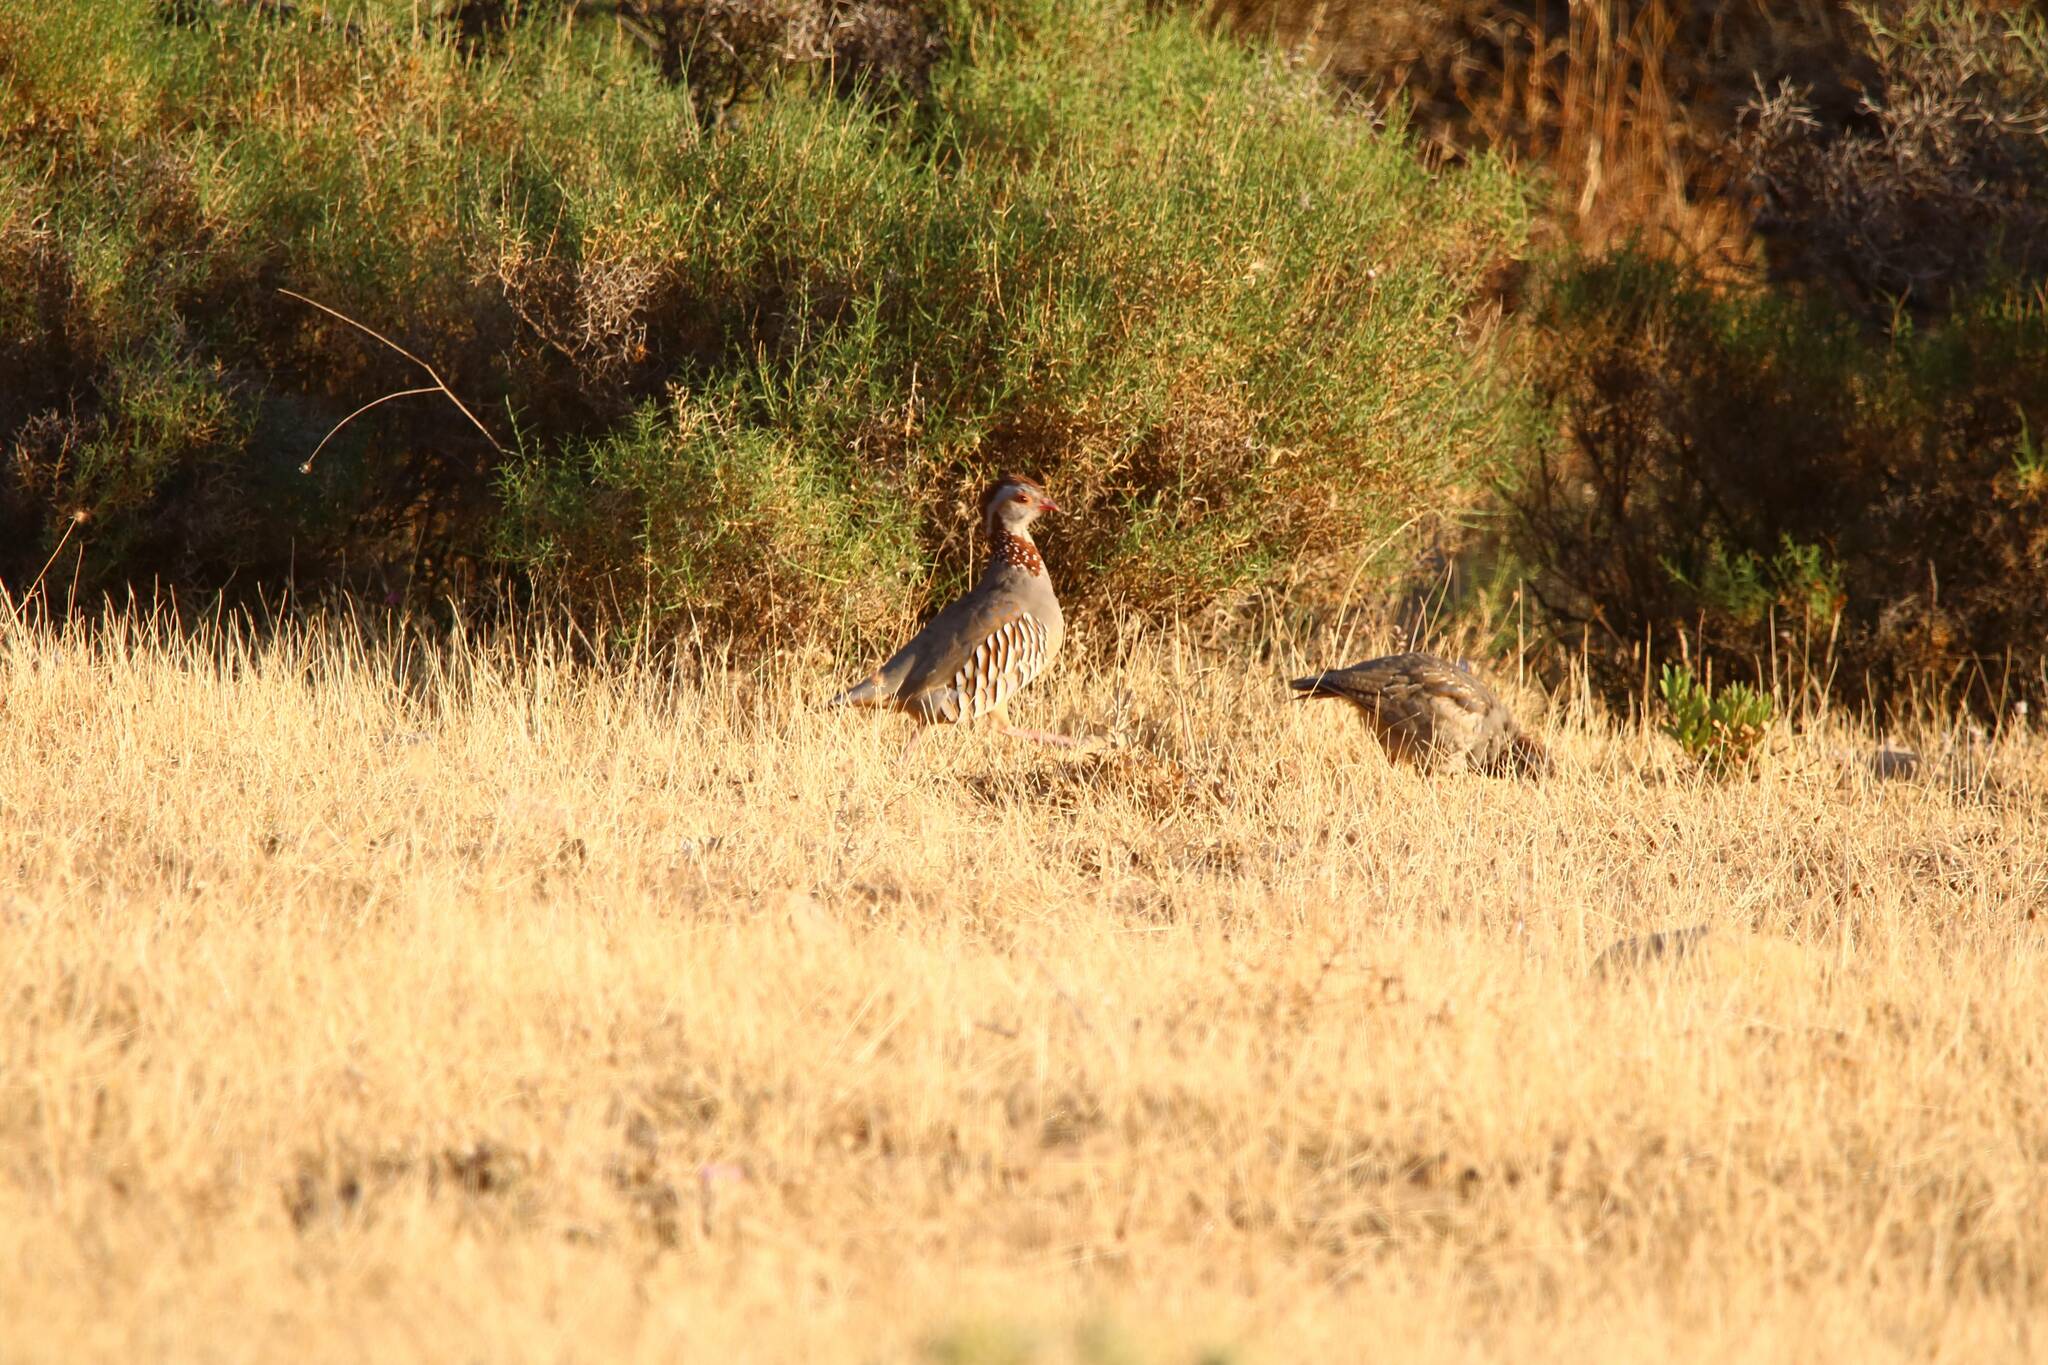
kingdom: Animalia
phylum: Chordata
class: Aves
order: Galliformes
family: Phasianidae
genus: Alectoris
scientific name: Alectoris barbara
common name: Barbary partridge
